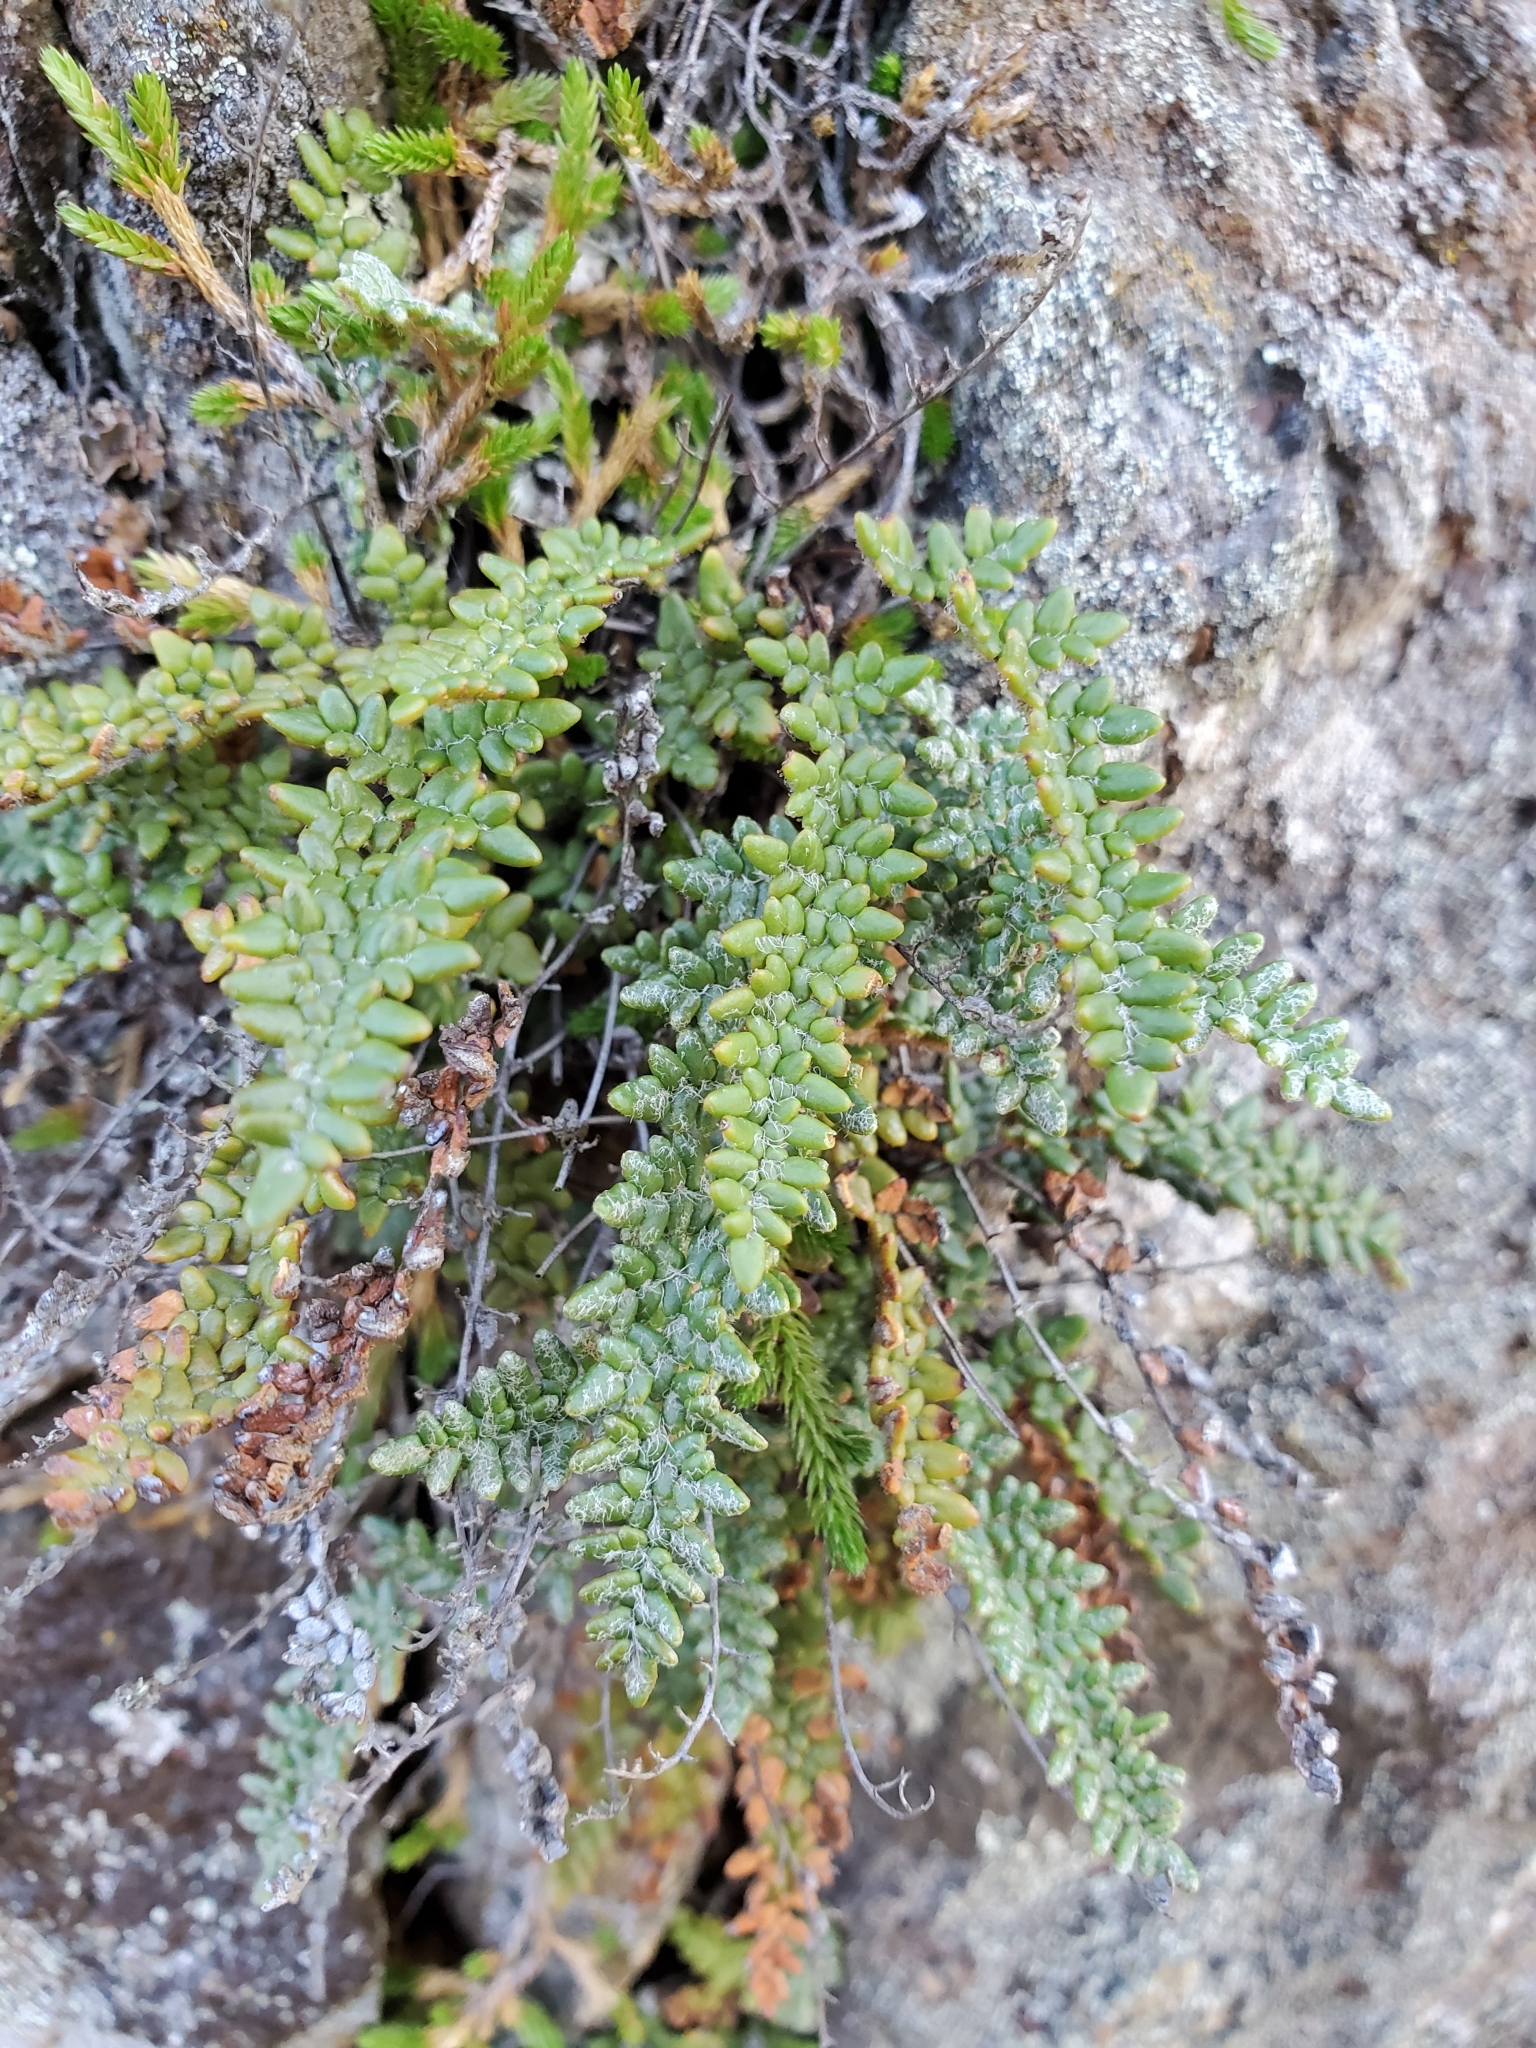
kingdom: Plantae
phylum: Tracheophyta
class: Polypodiopsida
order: Polypodiales
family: Pteridaceae
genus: Myriopteris
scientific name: Myriopteris gracillima
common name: Lace fern
